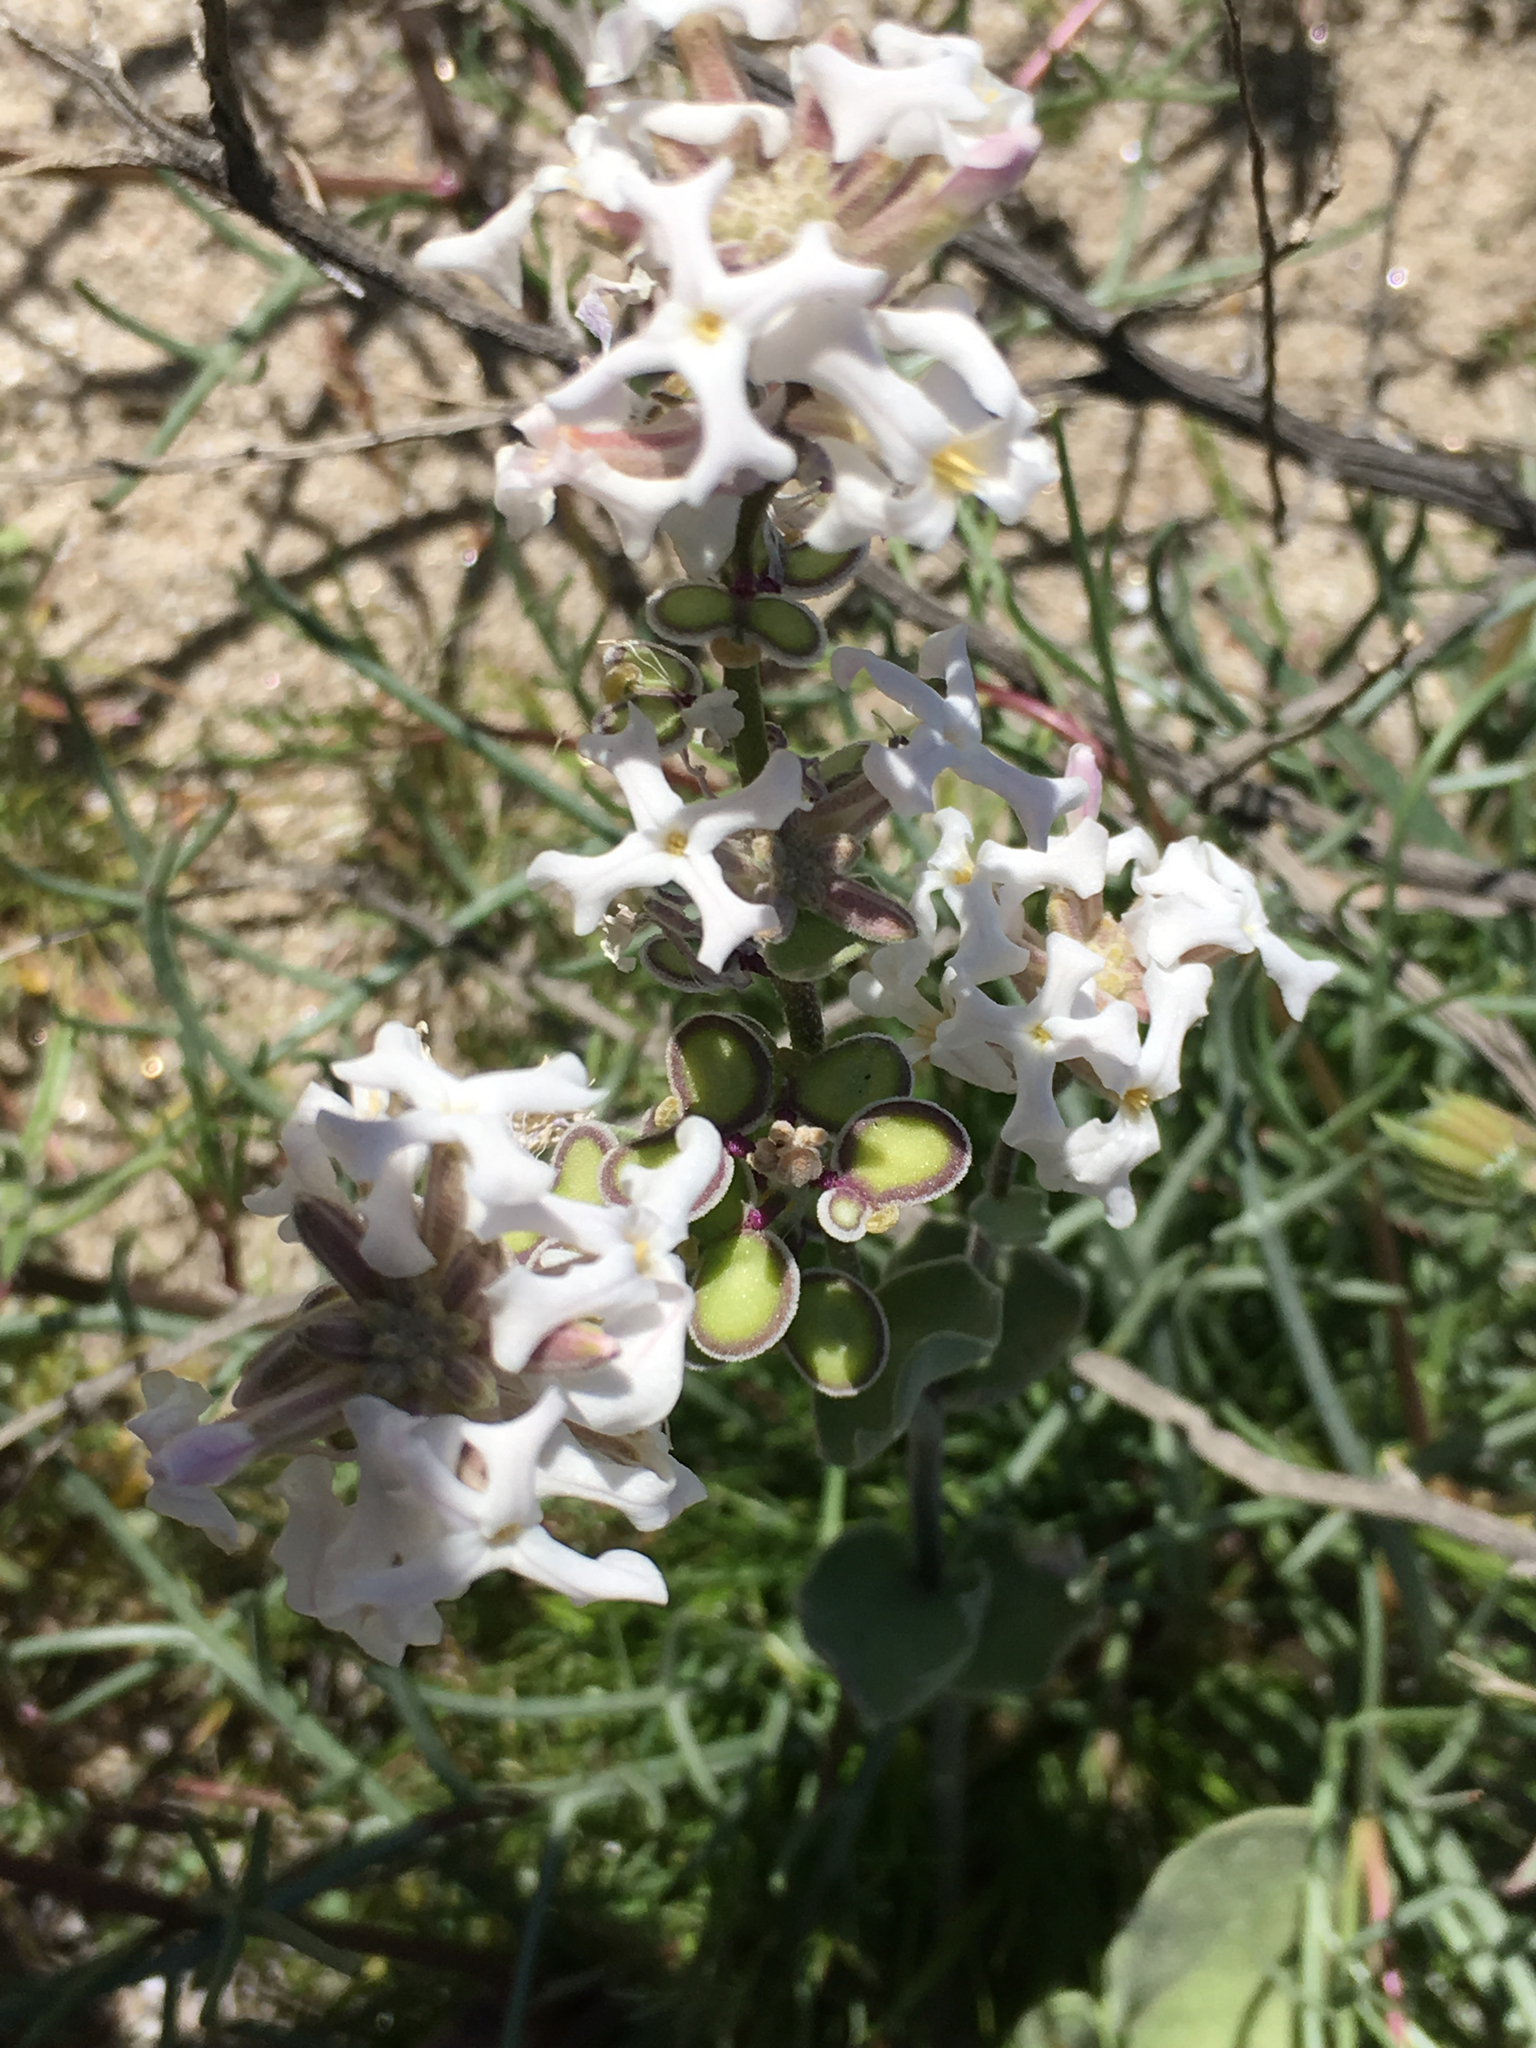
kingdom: Plantae
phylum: Tracheophyta
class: Magnoliopsida
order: Brassicales
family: Brassicaceae
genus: Dithyrea
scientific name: Dithyrea californica
